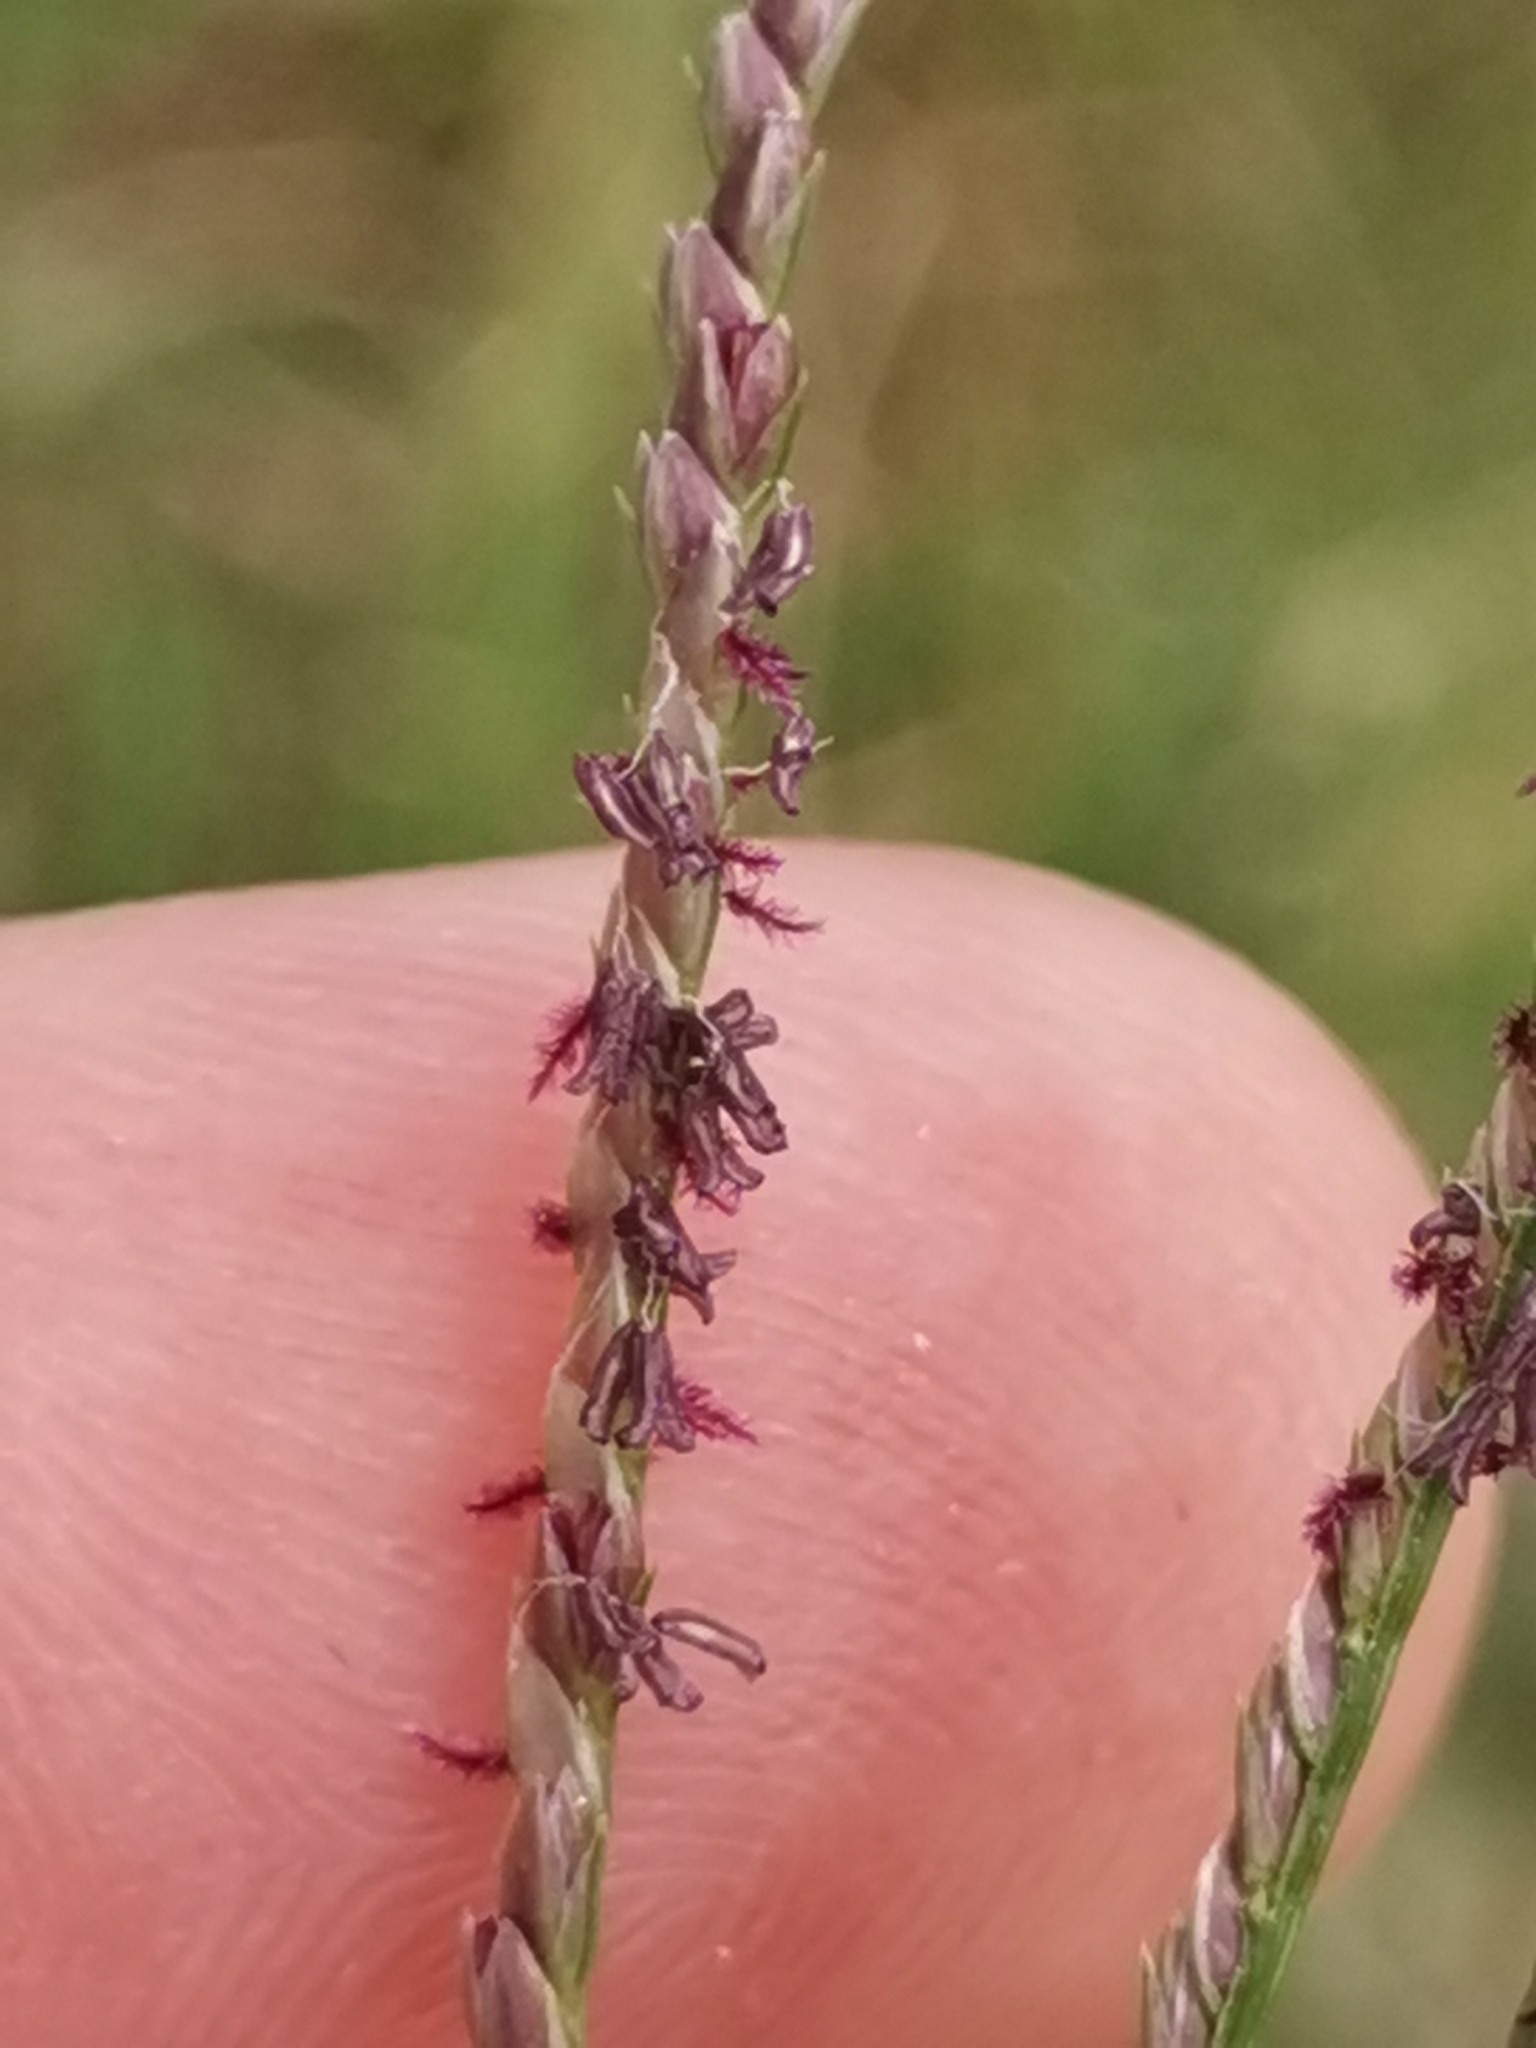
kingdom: Plantae
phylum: Tracheophyta
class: Liliopsida
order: Poales
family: Poaceae
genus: Cynodon
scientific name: Cynodon dactylon
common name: Bermuda grass
